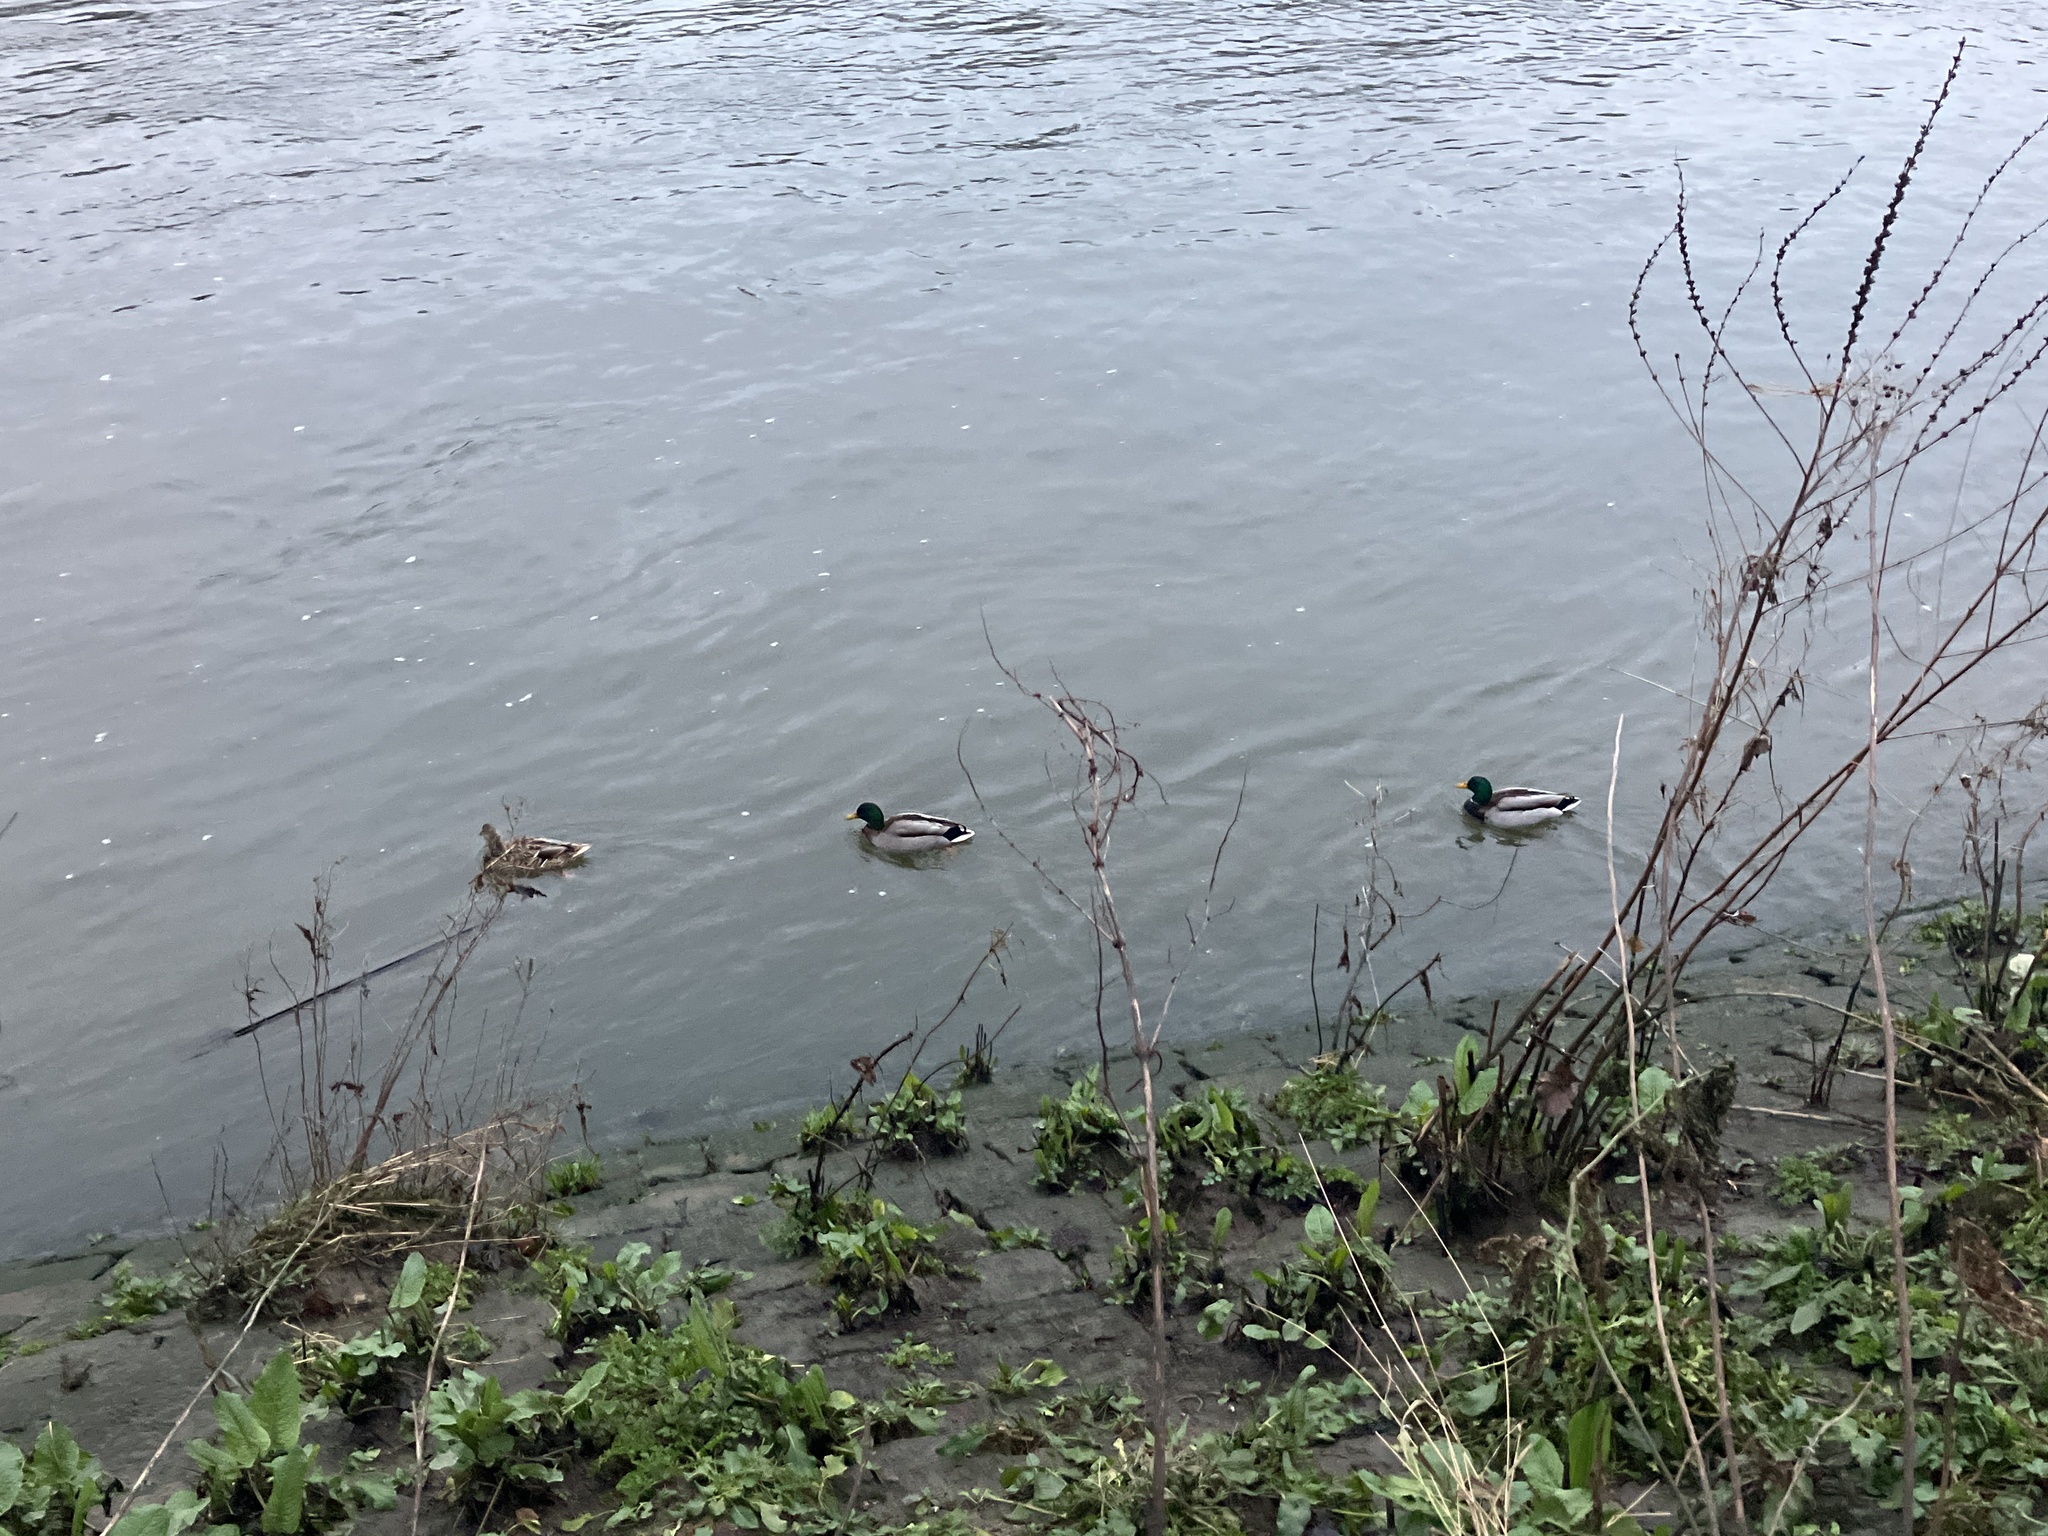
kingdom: Animalia
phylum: Chordata
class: Aves
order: Anseriformes
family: Anatidae
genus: Anas
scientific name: Anas platyrhynchos
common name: Mallard
